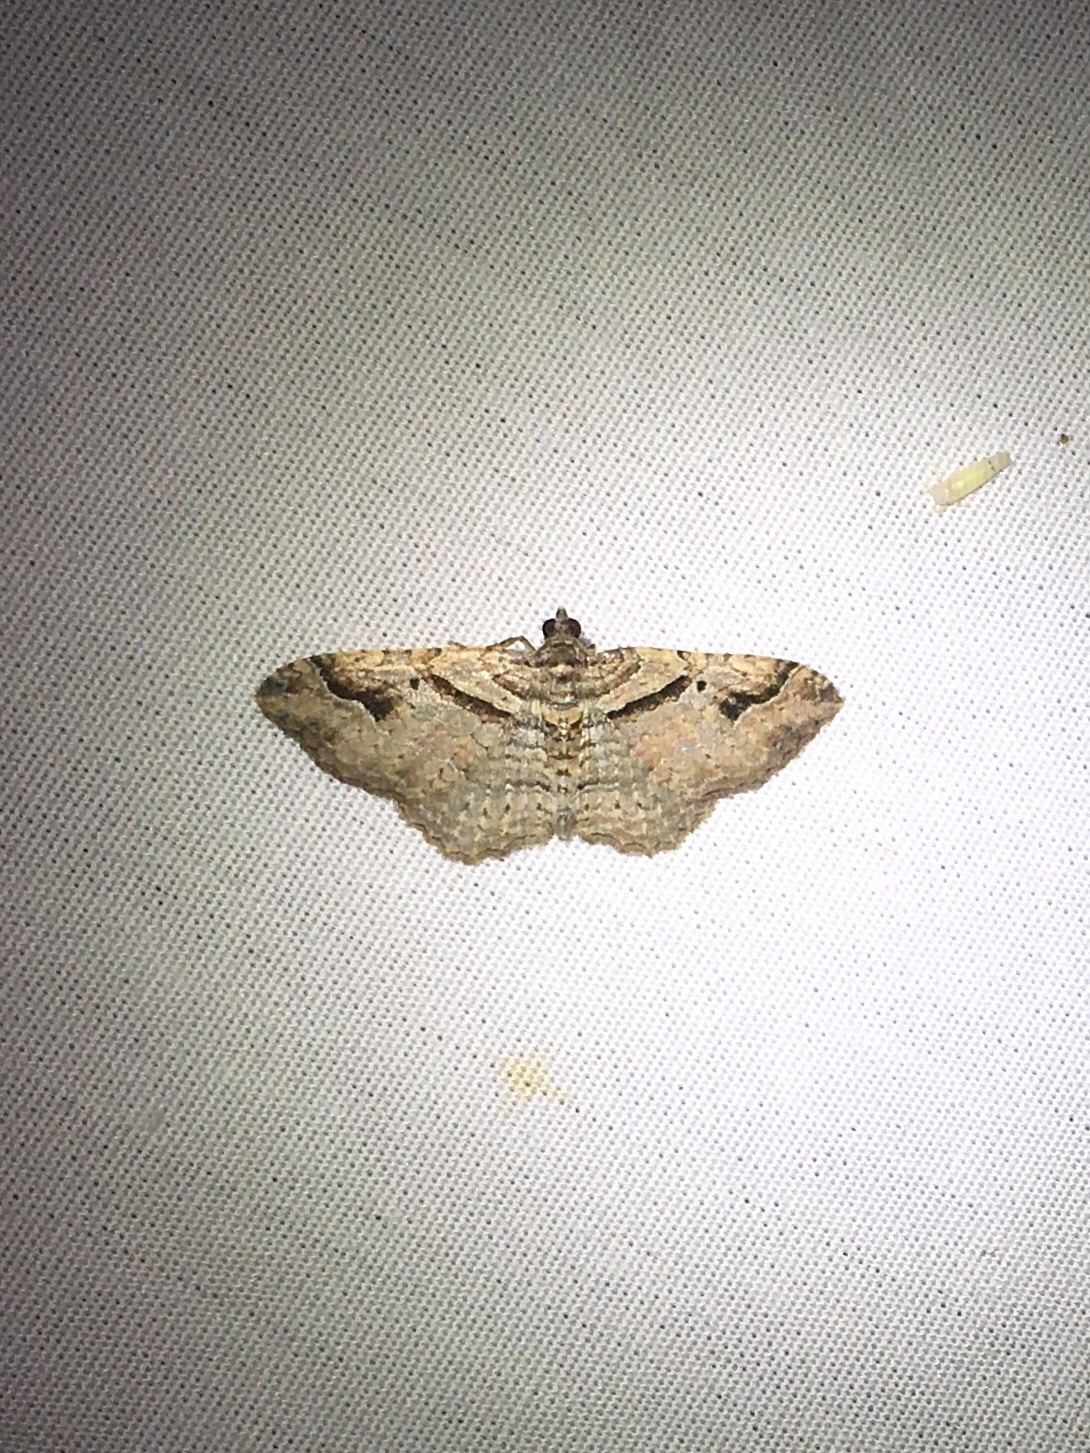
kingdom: Animalia
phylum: Arthropoda
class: Insecta
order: Lepidoptera
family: Geometridae
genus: Costaconvexa
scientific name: Costaconvexa centrostrigaria
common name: Bent-line carpet
